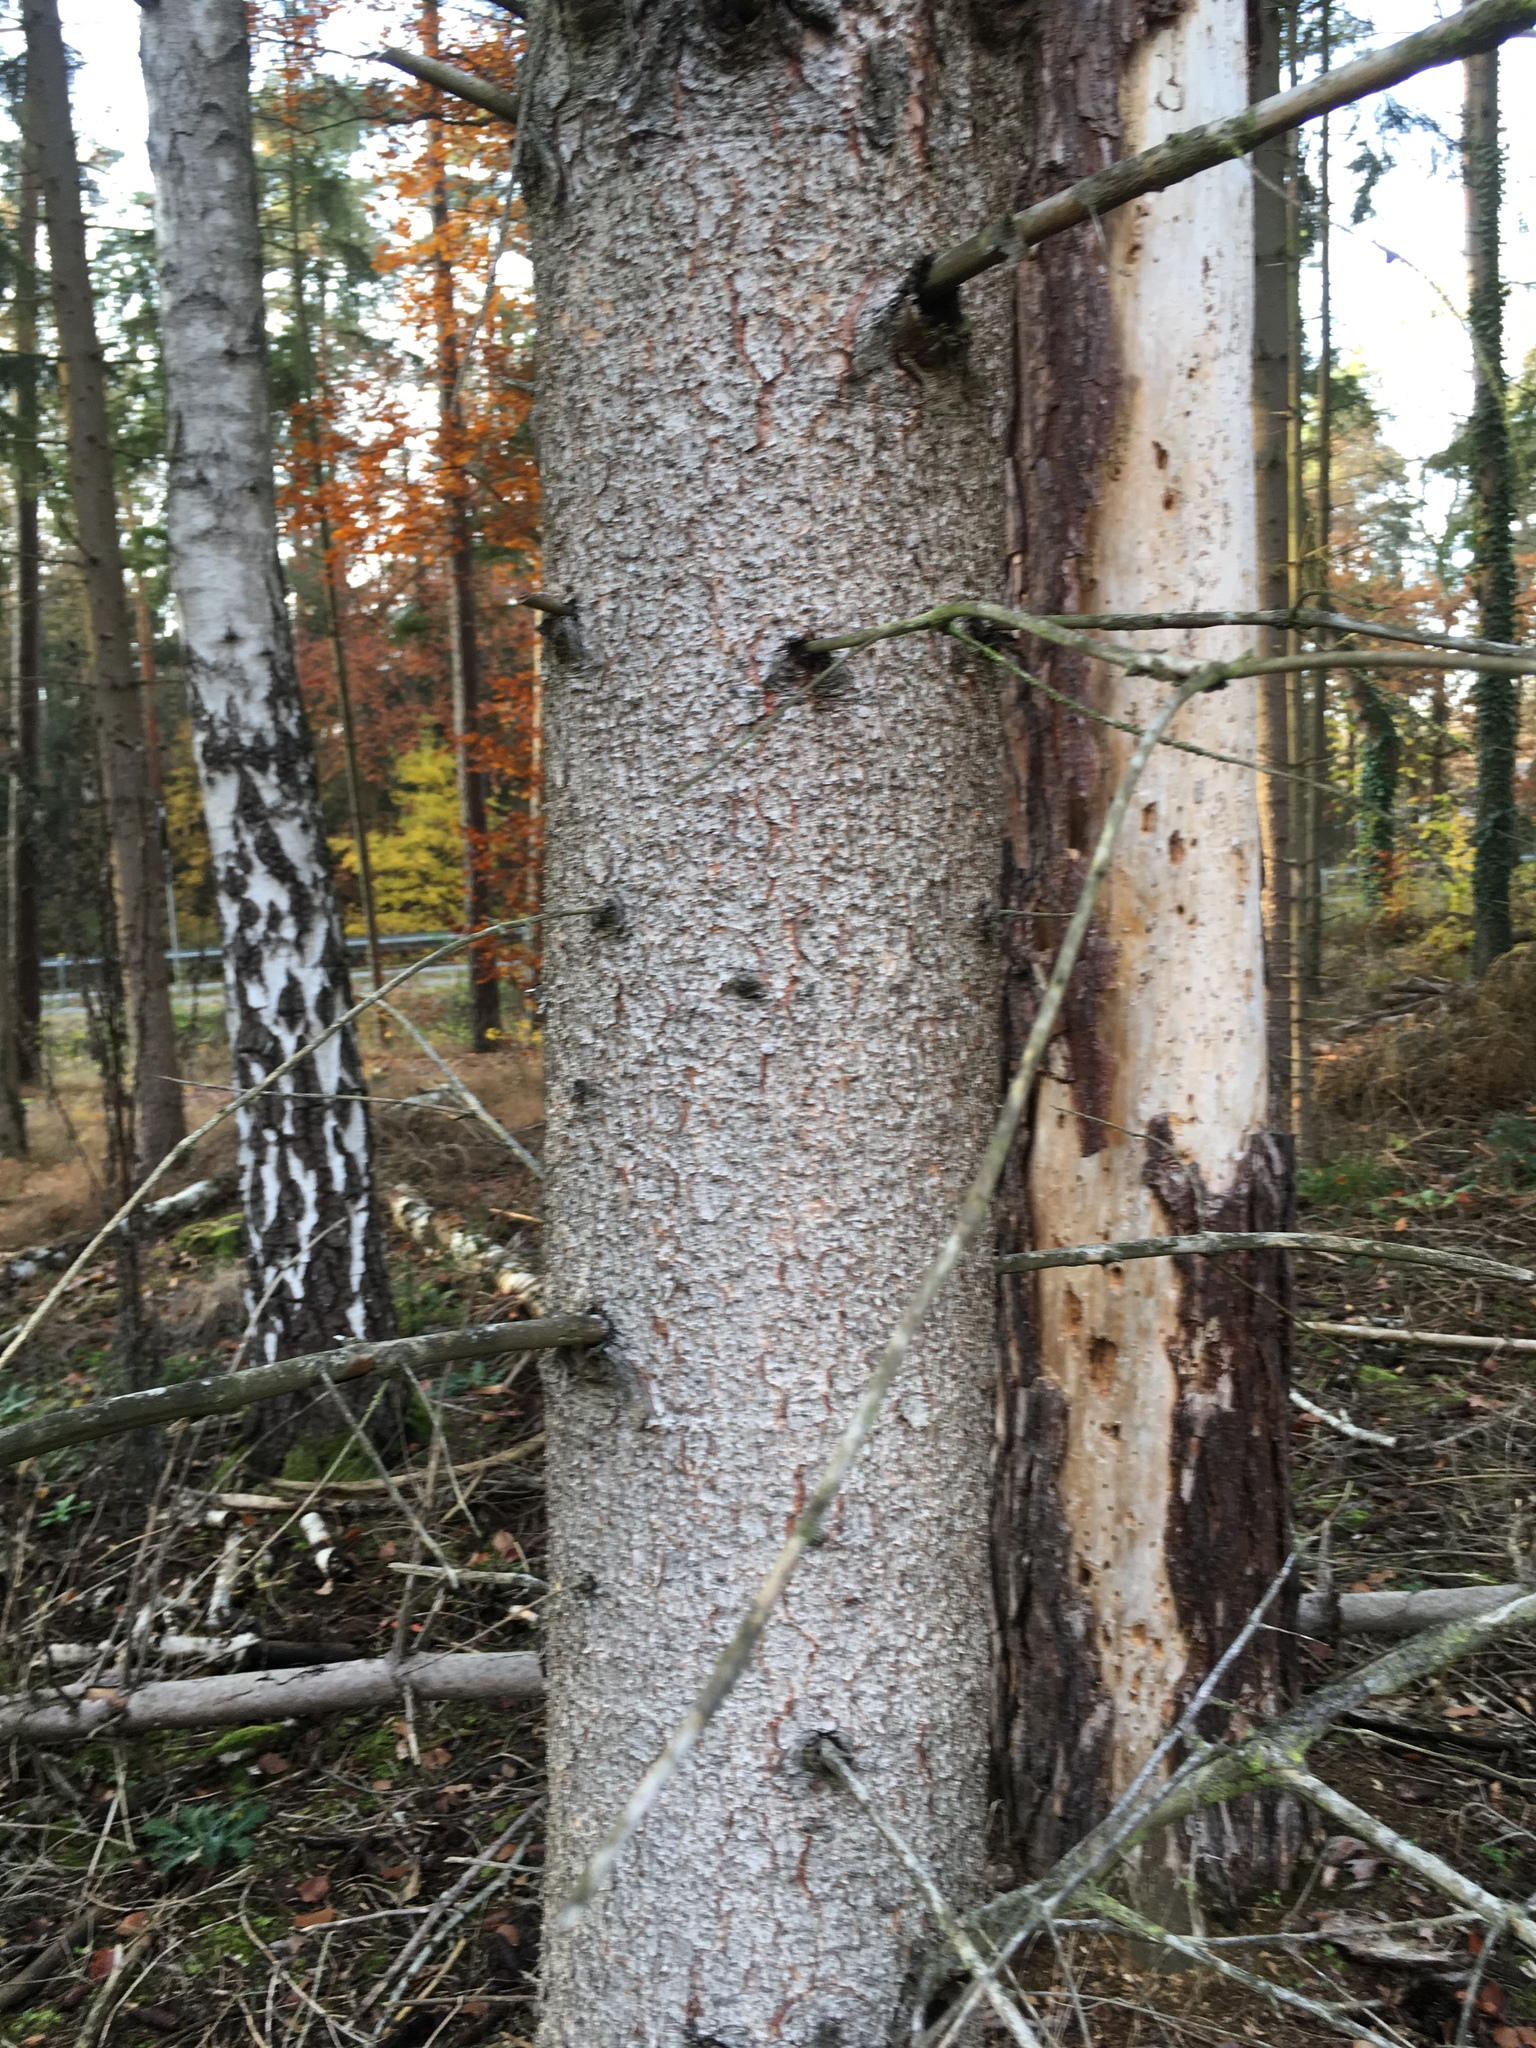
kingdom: Plantae
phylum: Tracheophyta
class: Pinopsida
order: Pinales
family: Pinaceae
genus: Picea
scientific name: Picea abies
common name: Norway spruce
